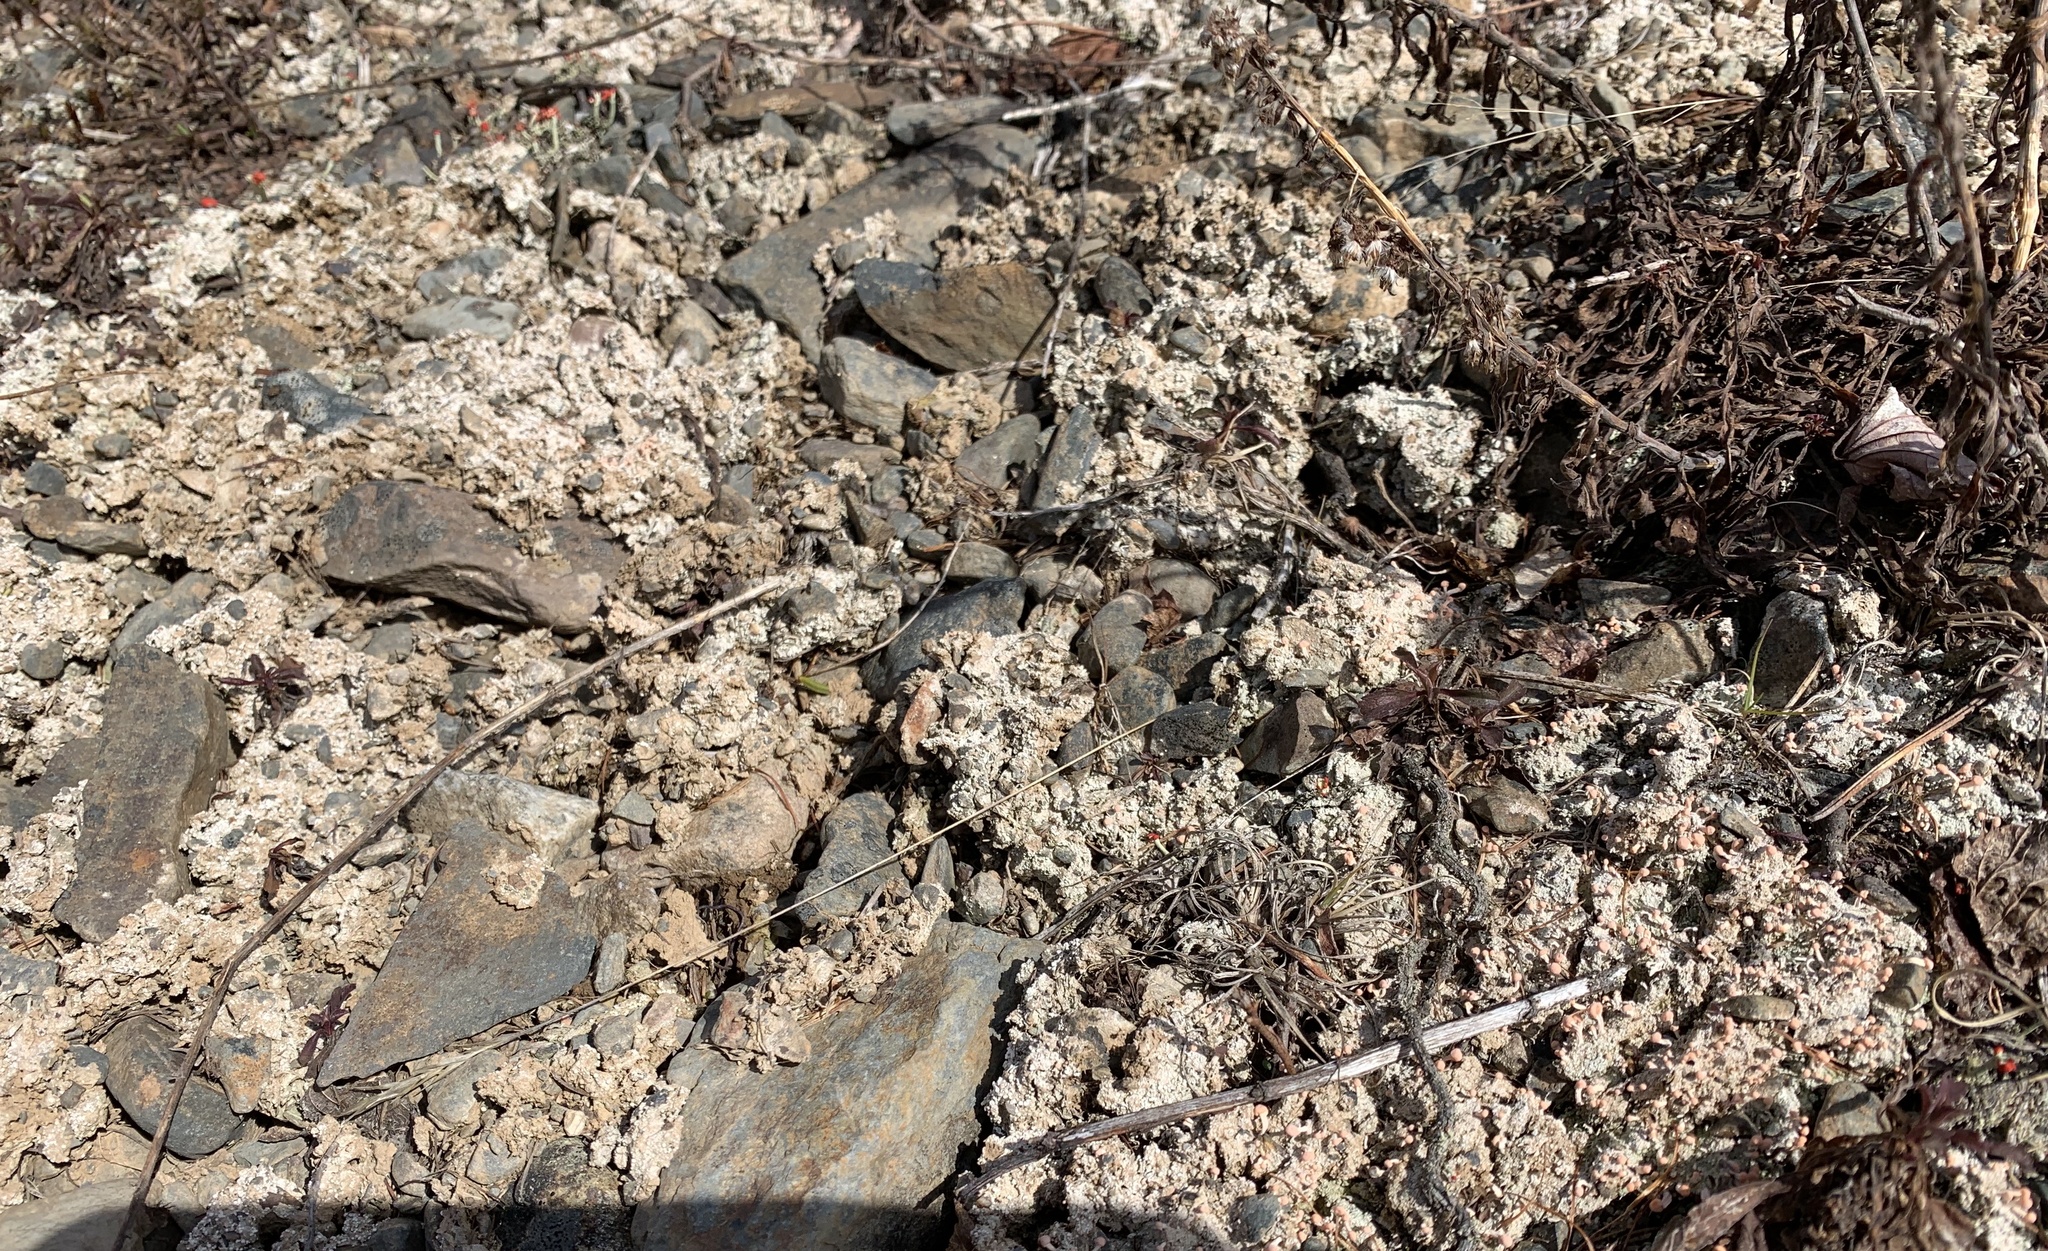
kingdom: Fungi
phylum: Ascomycota
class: Lecanoromycetes
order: Pertusariales
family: Icmadophilaceae
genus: Dibaeis
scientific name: Dibaeis baeomyces
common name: Pink earth lichen
